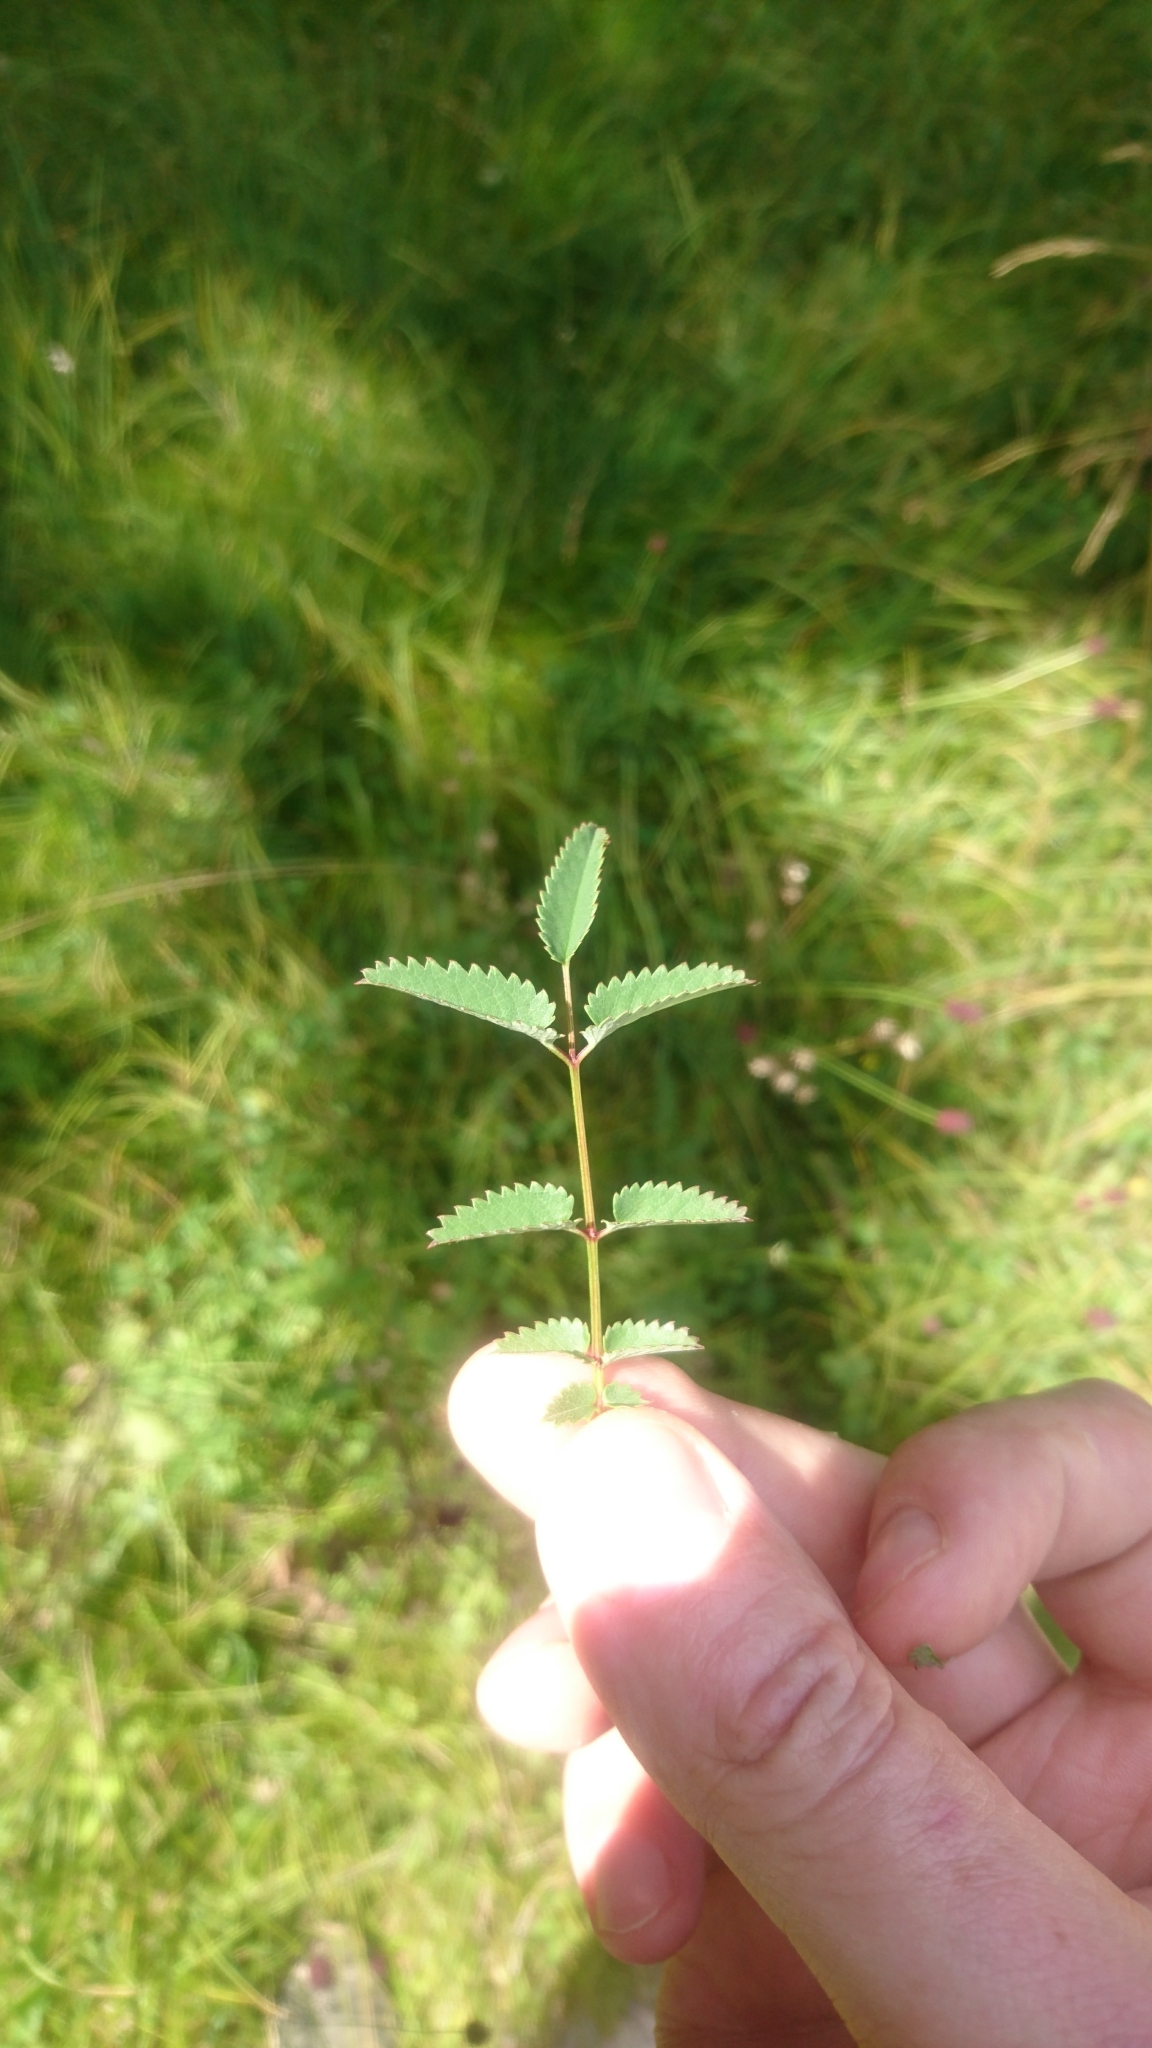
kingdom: Plantae
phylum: Tracheophyta
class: Magnoliopsida
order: Rosales
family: Rosaceae
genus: Sanguisorba
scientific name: Sanguisorba officinalis
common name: Great burnet
